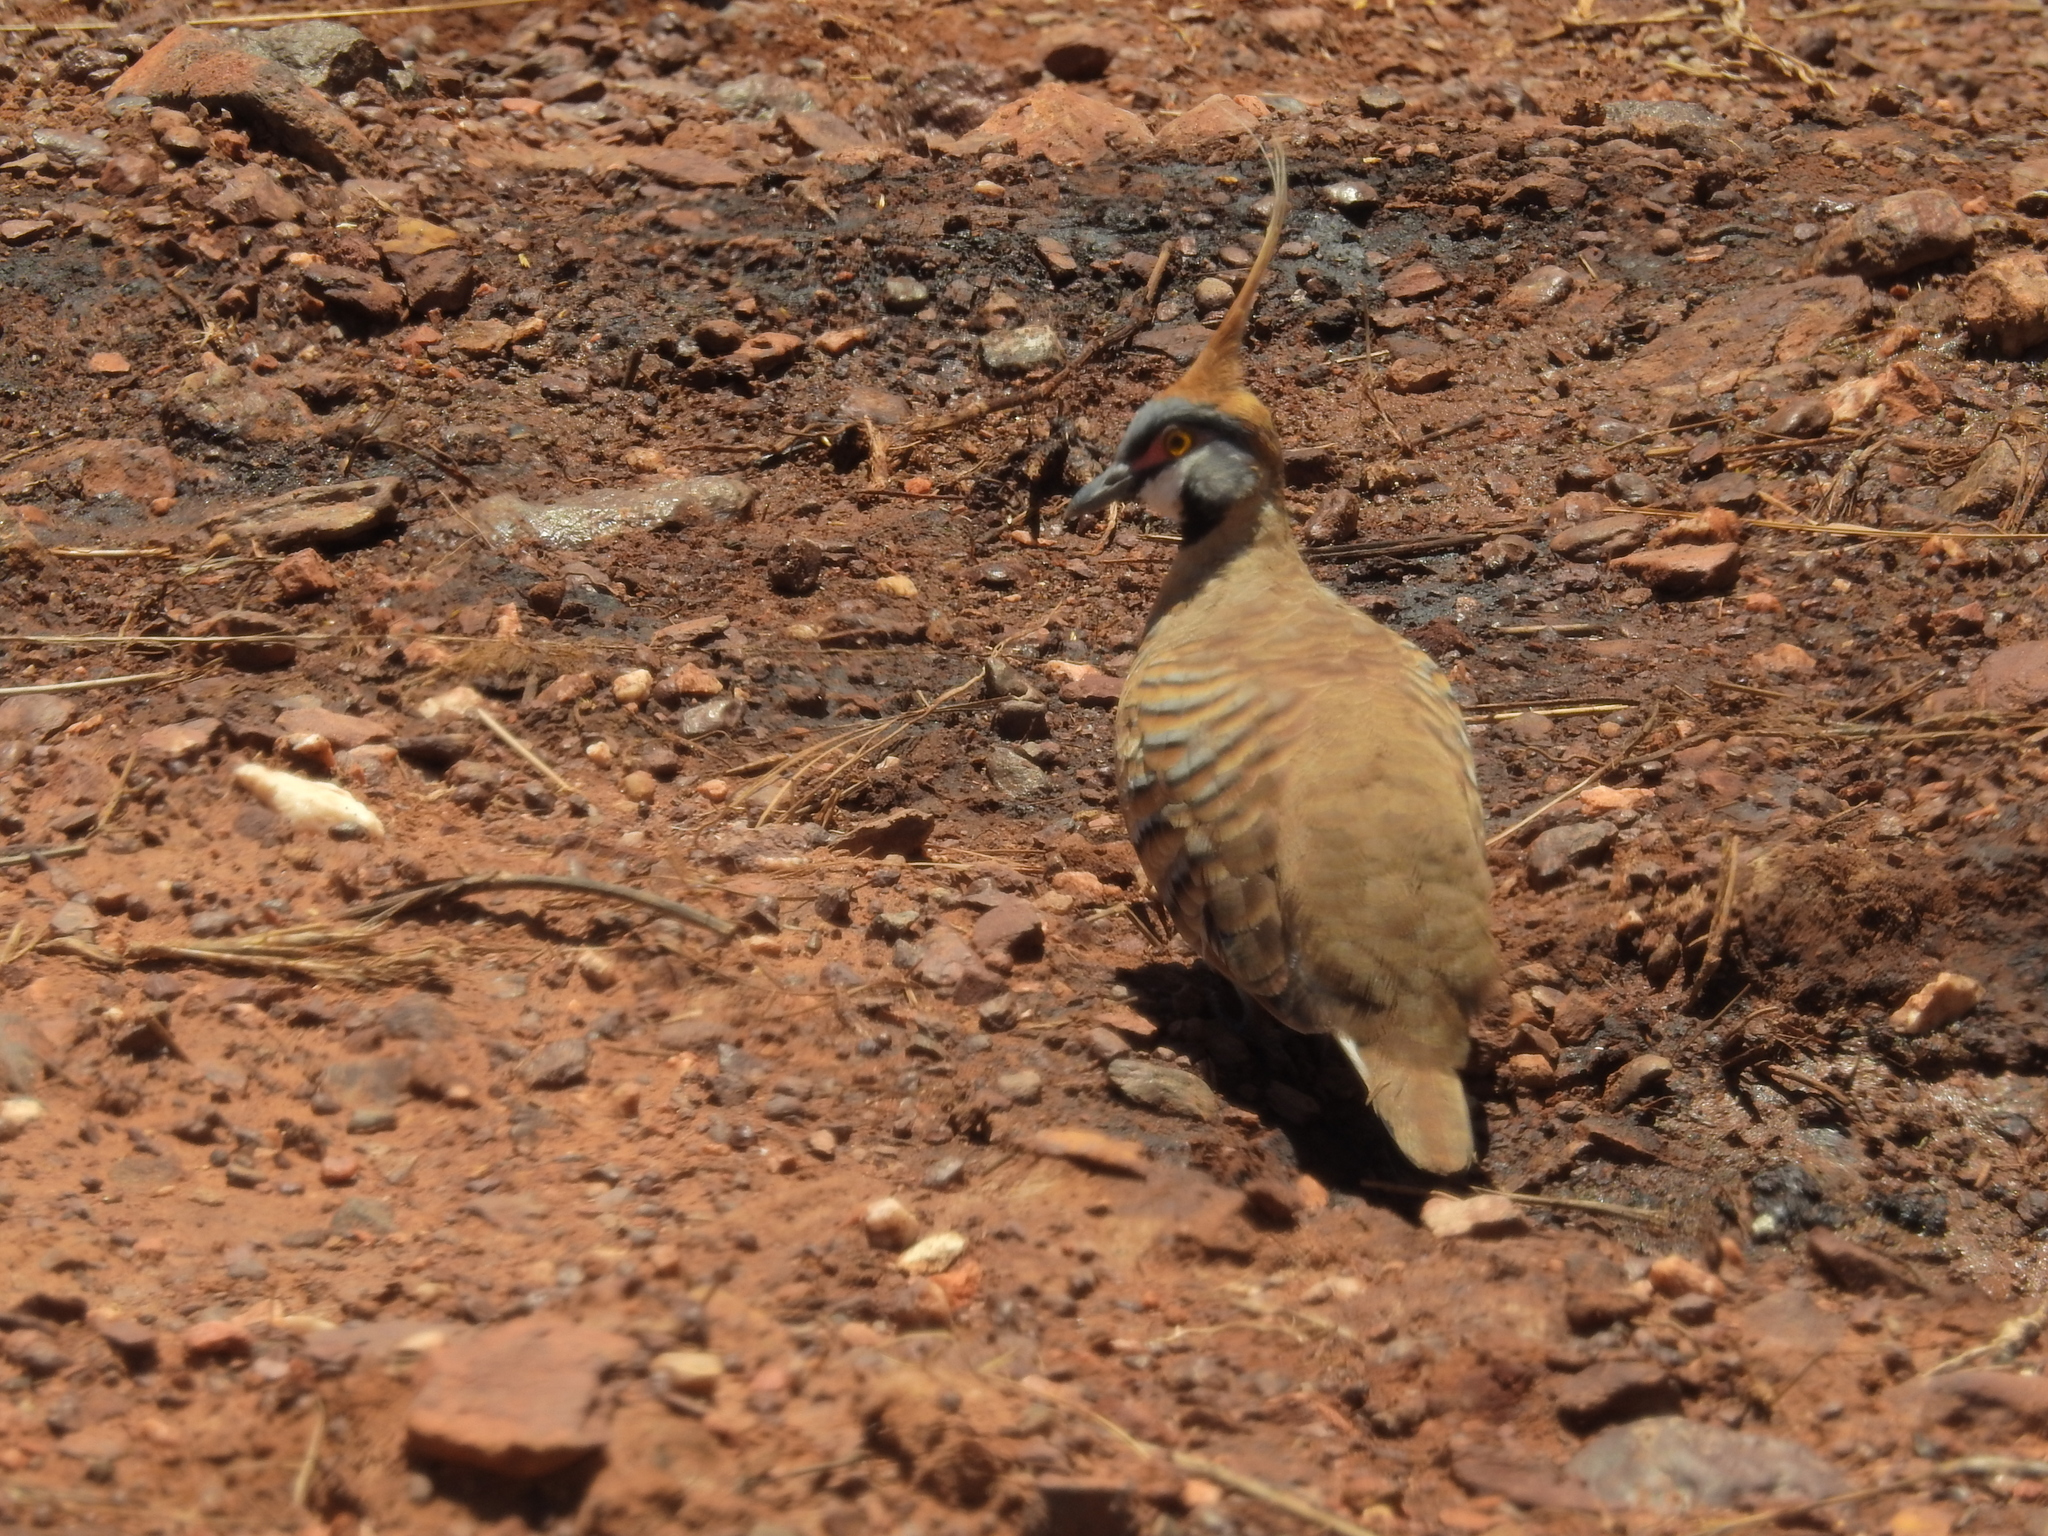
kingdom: Animalia
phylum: Chordata
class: Aves
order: Columbiformes
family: Columbidae
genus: Geophaps
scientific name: Geophaps plumifera
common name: Spinifex pigeon
